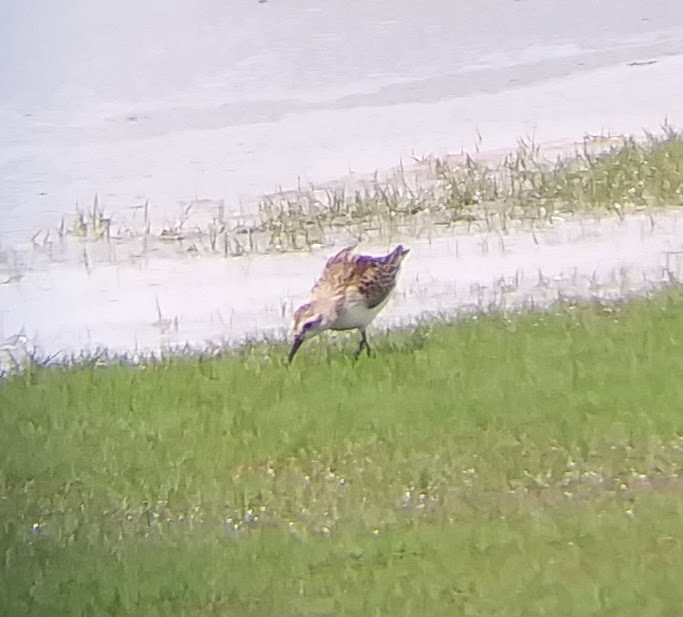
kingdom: Animalia
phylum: Chordata
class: Aves
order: Charadriiformes
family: Scolopacidae
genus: Calidris
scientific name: Calidris mauri
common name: Western sandpiper
